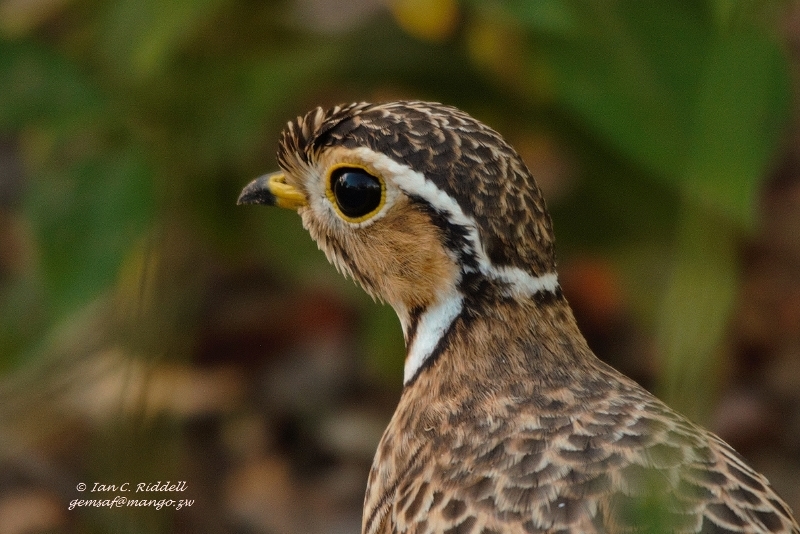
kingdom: Animalia
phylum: Chordata
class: Aves
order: Charadriiformes
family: Glareolidae
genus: Rhinoptilus
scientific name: Rhinoptilus cinctus
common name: Three-banded courser
